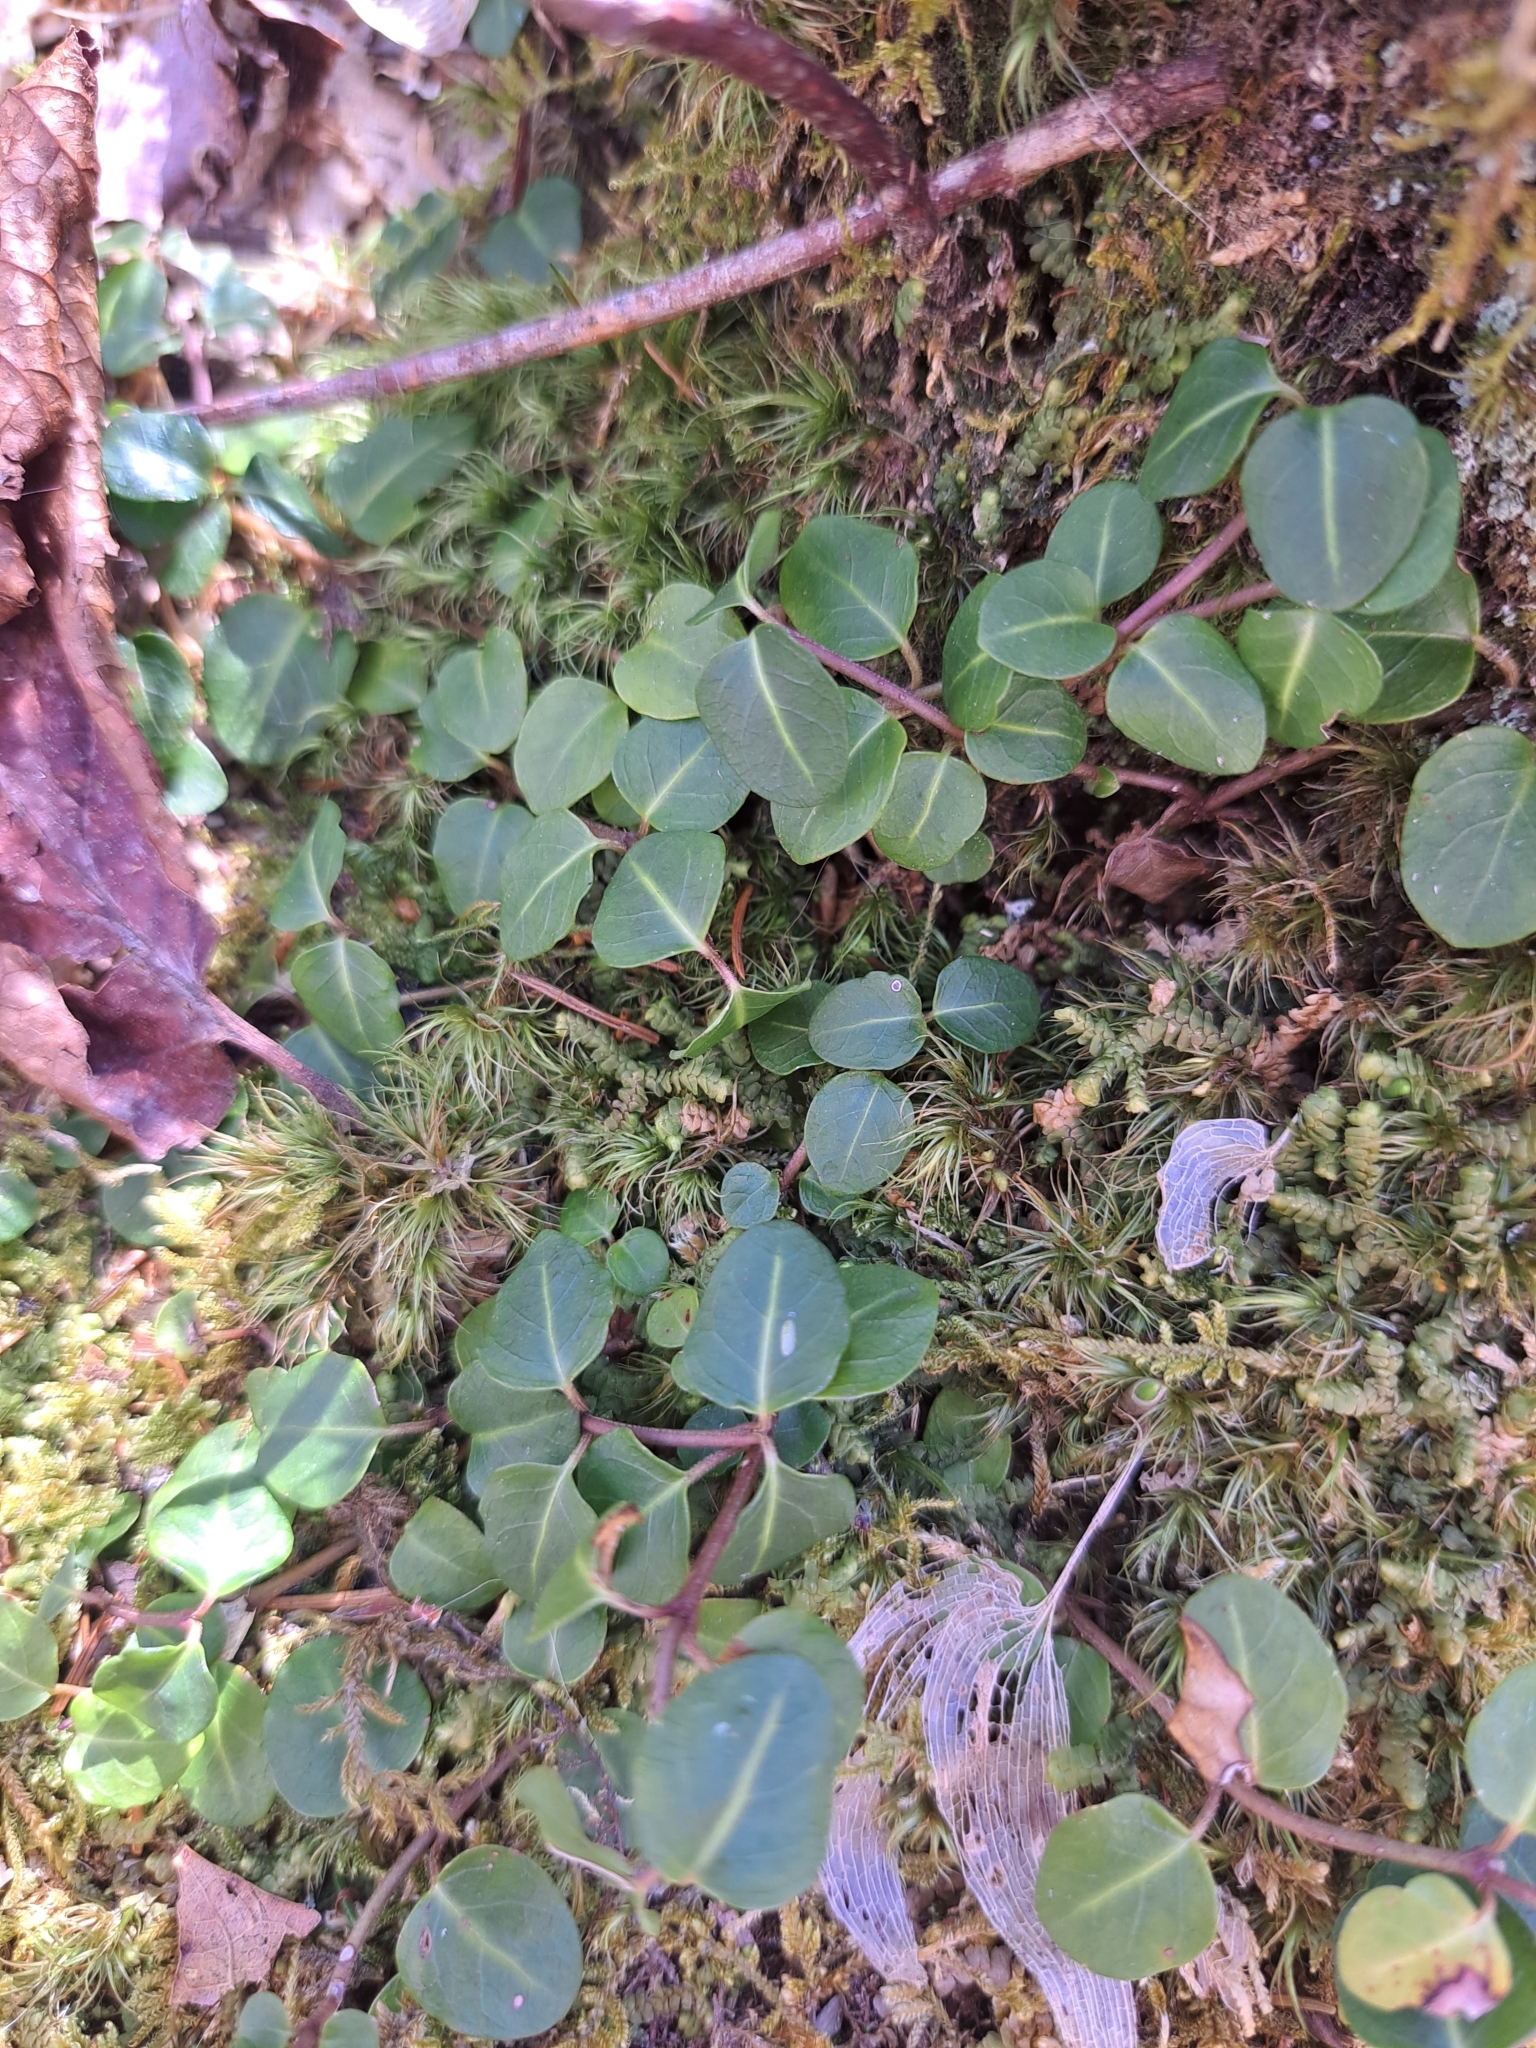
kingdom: Plantae
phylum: Tracheophyta
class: Magnoliopsida
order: Gentianales
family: Rubiaceae
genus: Mitchella
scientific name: Mitchella repens
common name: Partridge-berry
